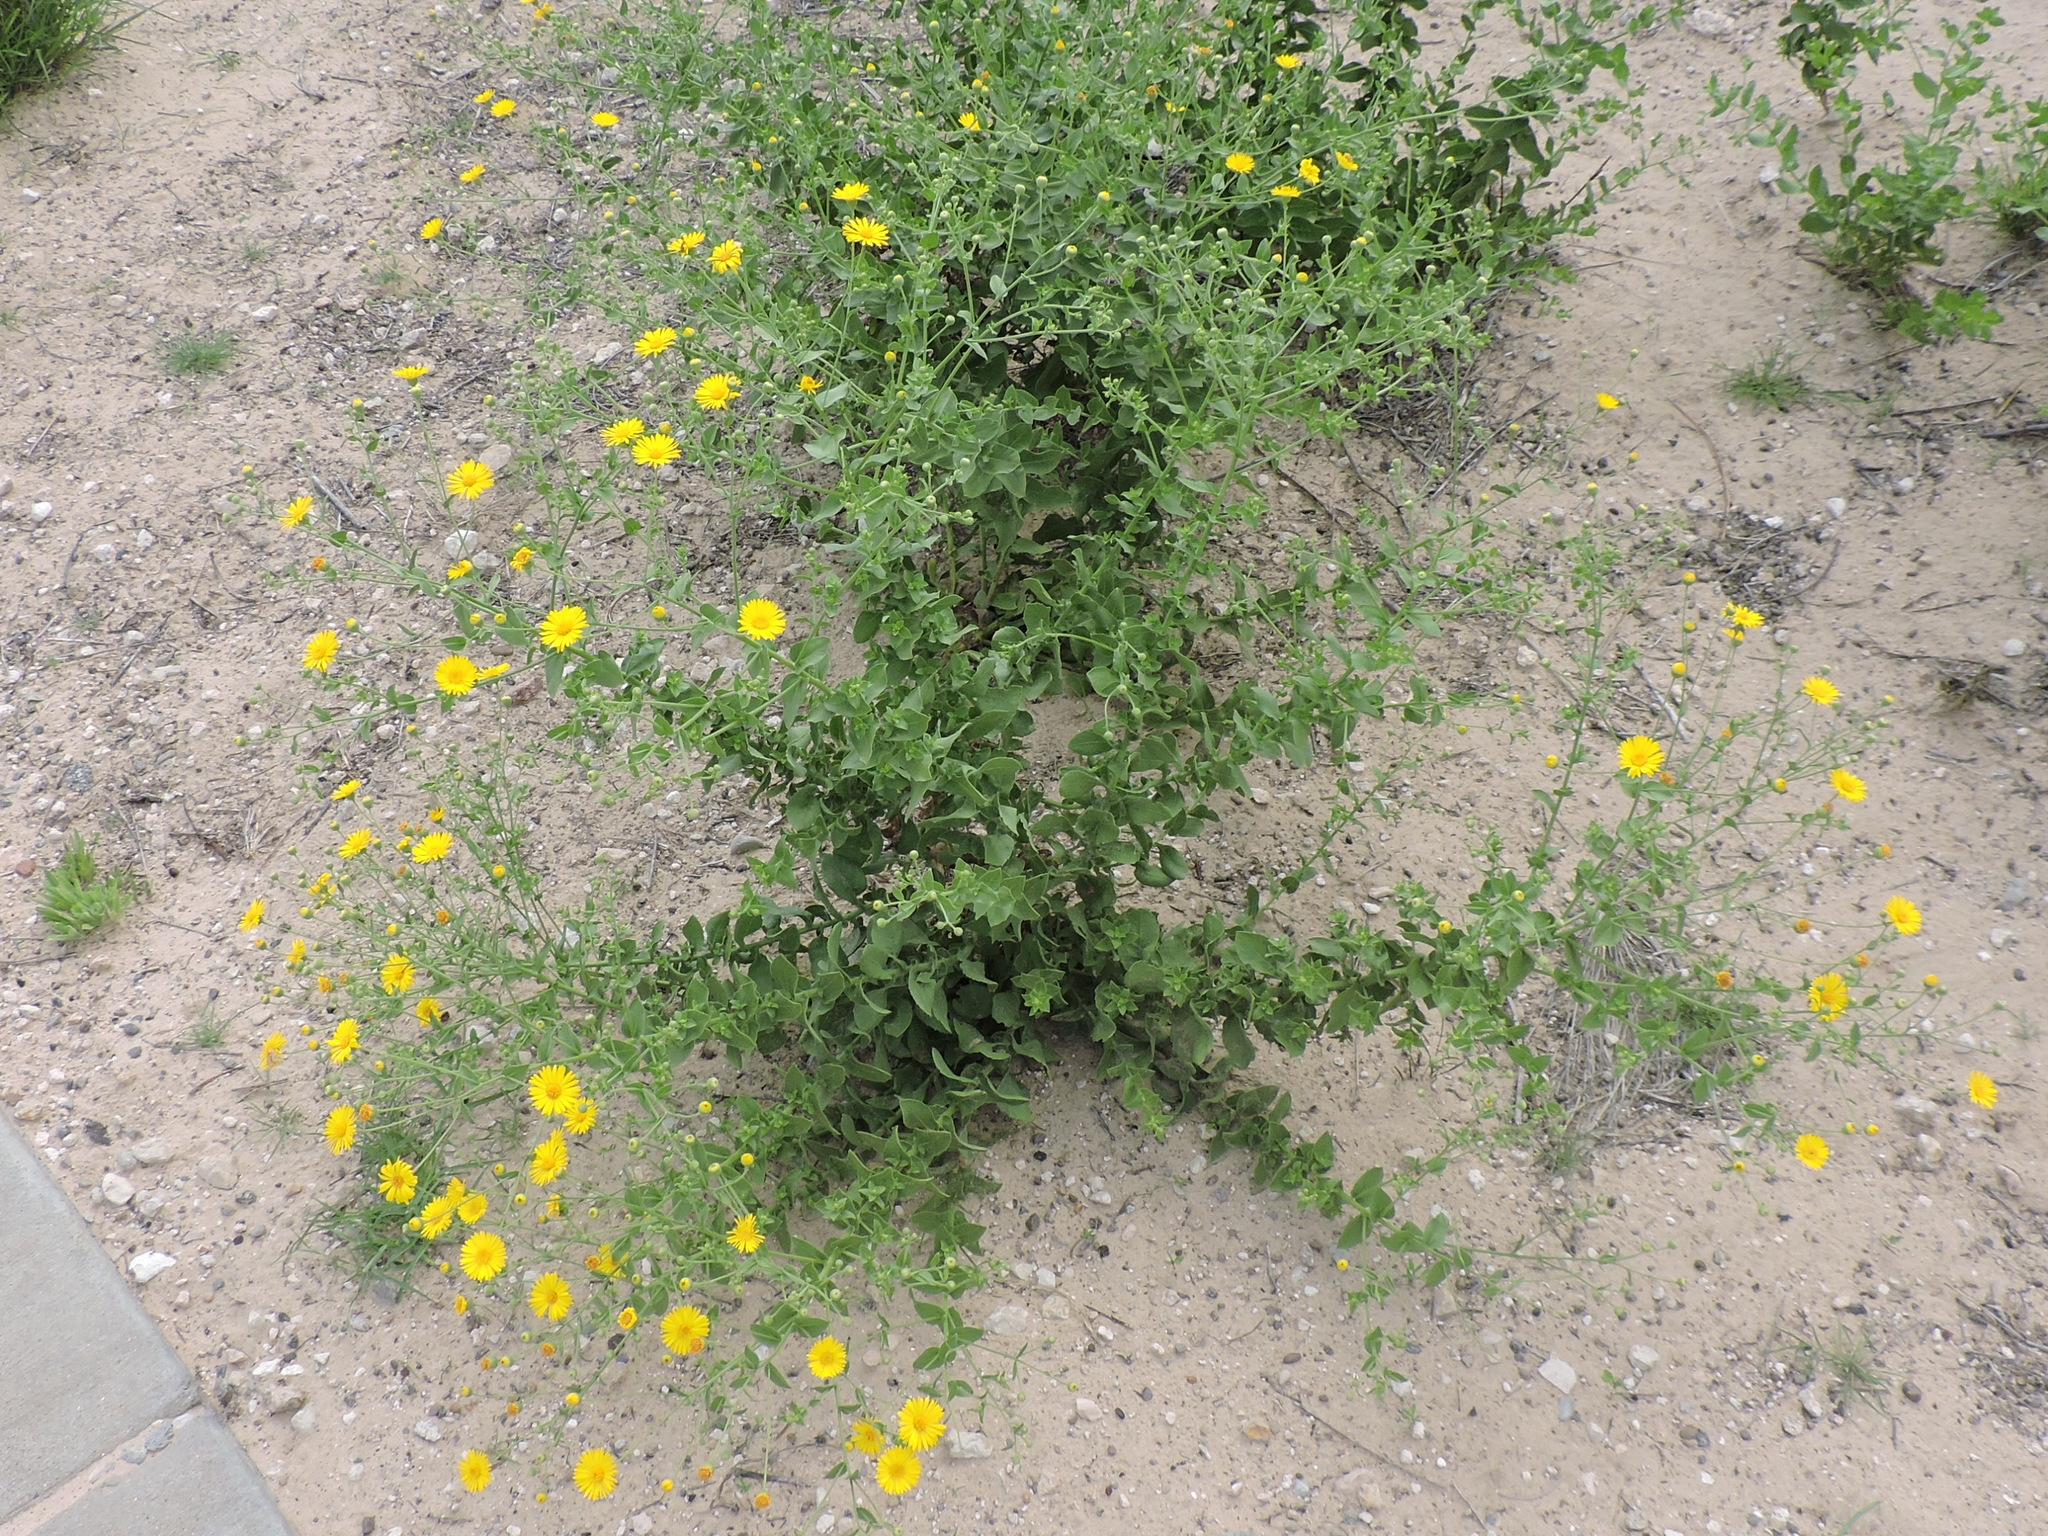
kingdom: Plantae
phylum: Tracheophyta
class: Magnoliopsida
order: Asterales
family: Asteraceae
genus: Heterotheca
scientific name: Heterotheca subaxillaris
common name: Camphorweed
